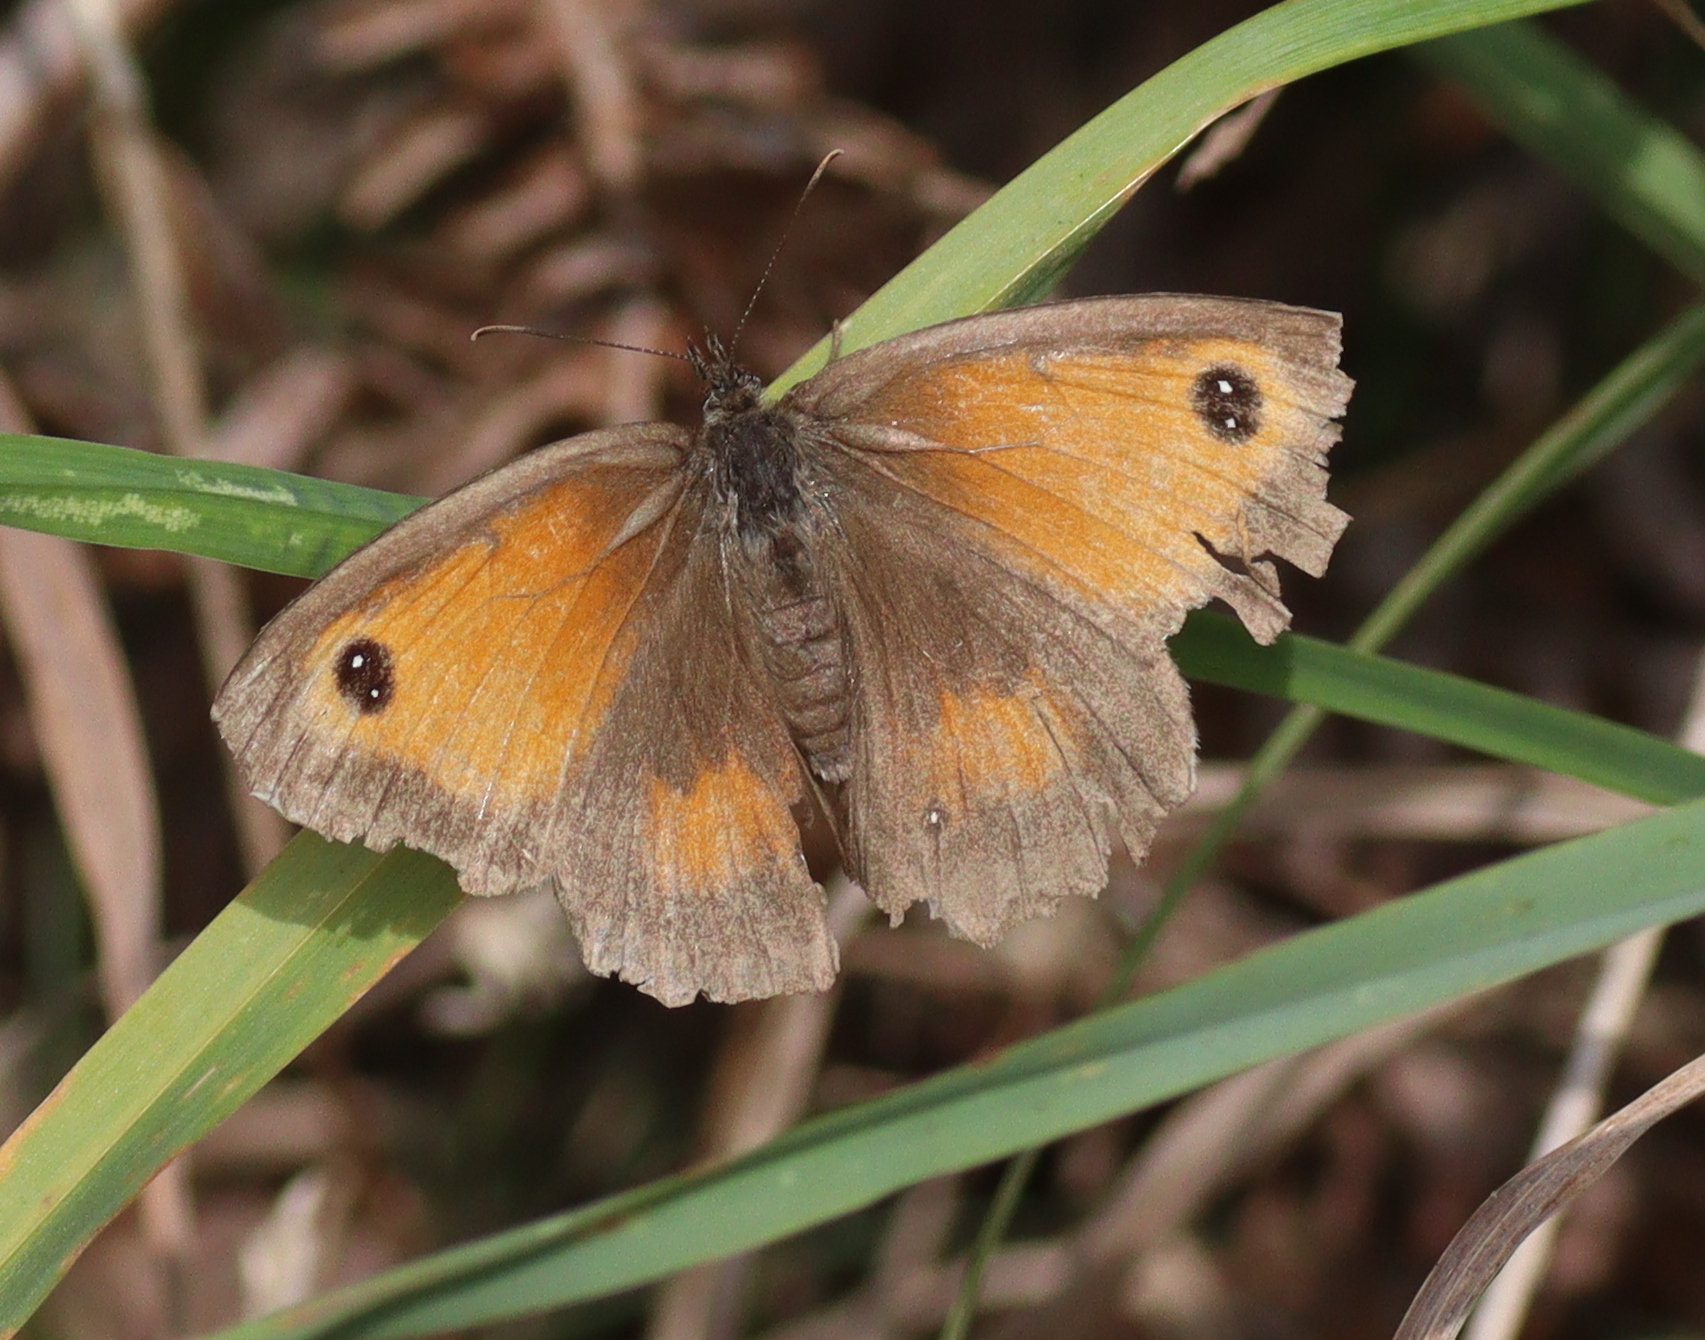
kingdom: Animalia
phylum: Arthropoda
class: Insecta
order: Lepidoptera
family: Nymphalidae
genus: Pyronia
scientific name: Pyronia tithonus
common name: Gatekeeper
